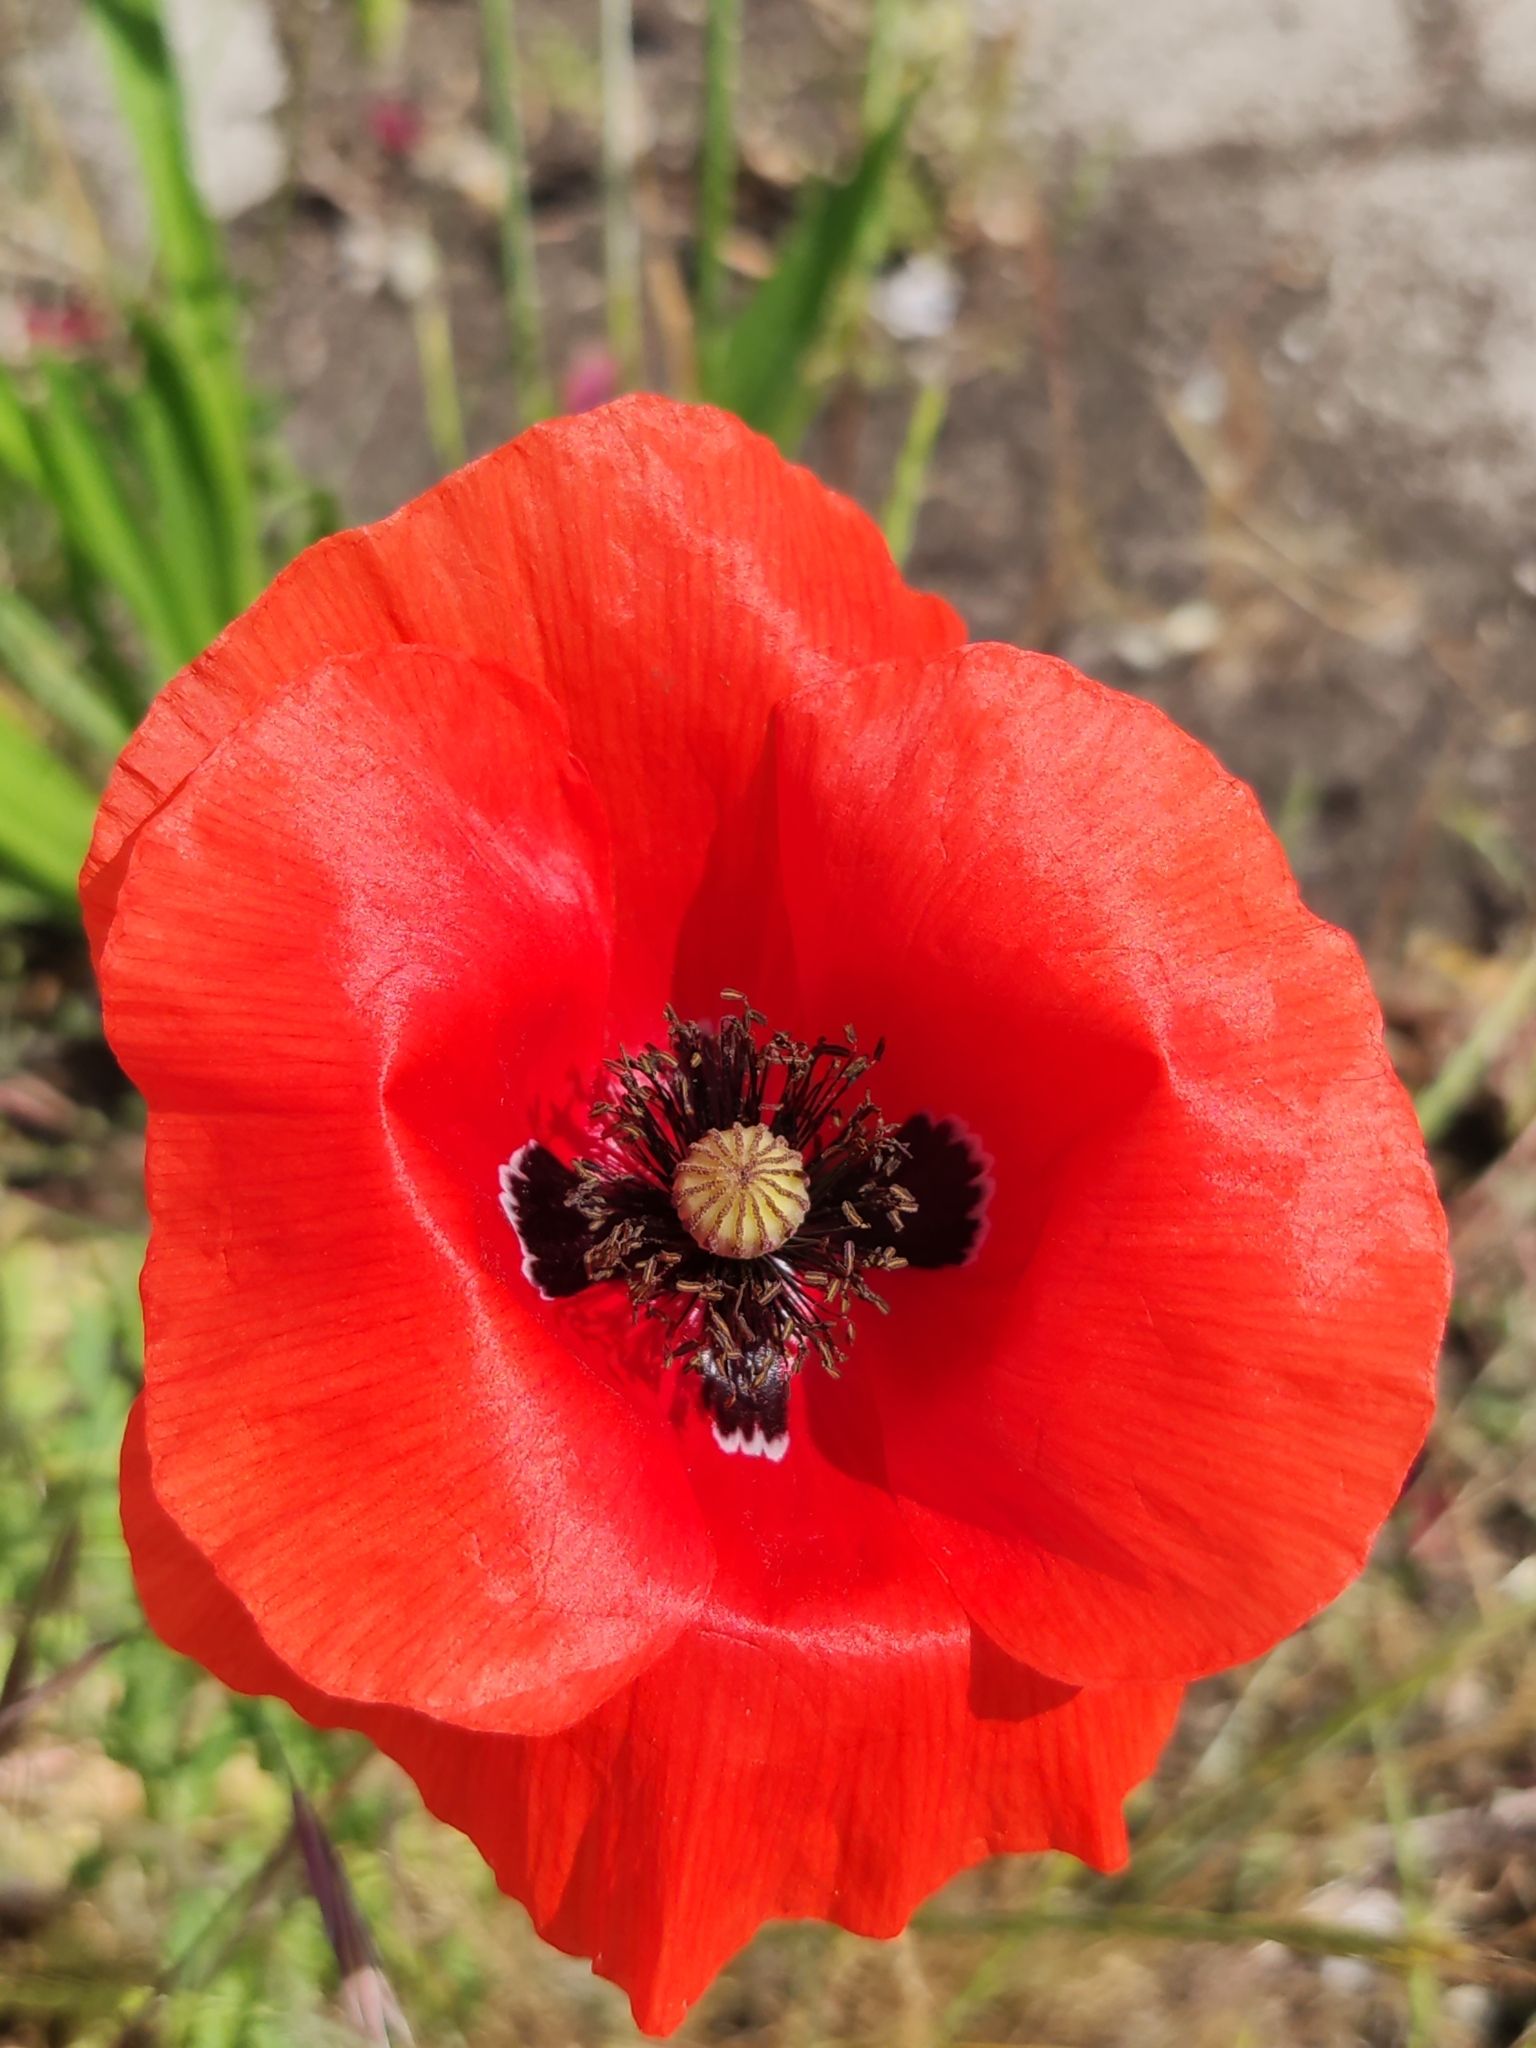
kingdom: Plantae
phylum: Tracheophyta
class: Magnoliopsida
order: Ranunculales
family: Papaveraceae
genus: Papaver
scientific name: Papaver rhoeas
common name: Corn poppy
